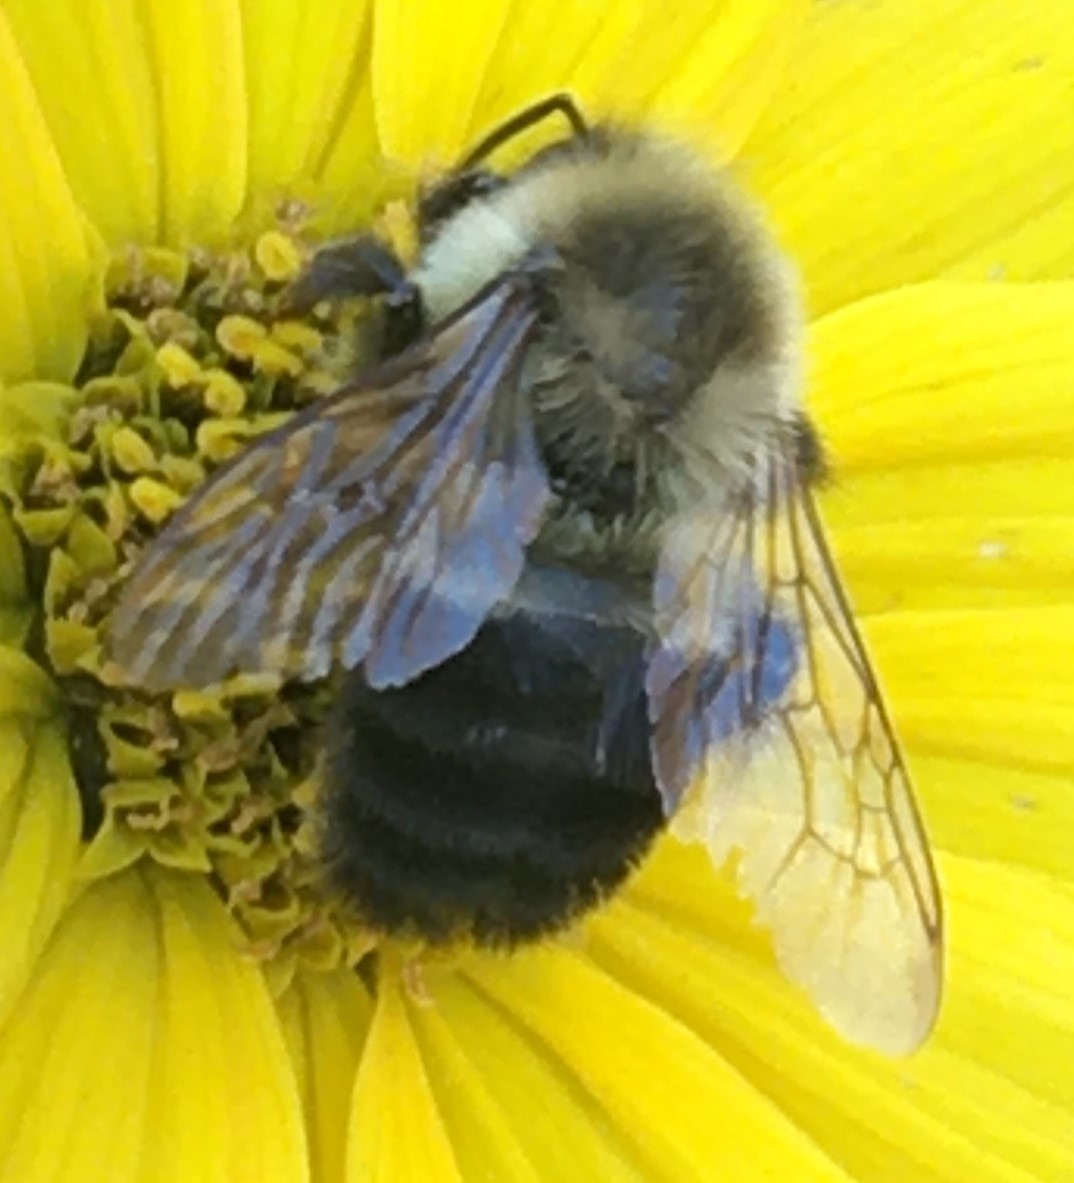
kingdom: Animalia
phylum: Arthropoda
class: Insecta
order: Hymenoptera
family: Apidae
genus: Bombus
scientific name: Bombus impatiens
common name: Common eastern bumble bee
